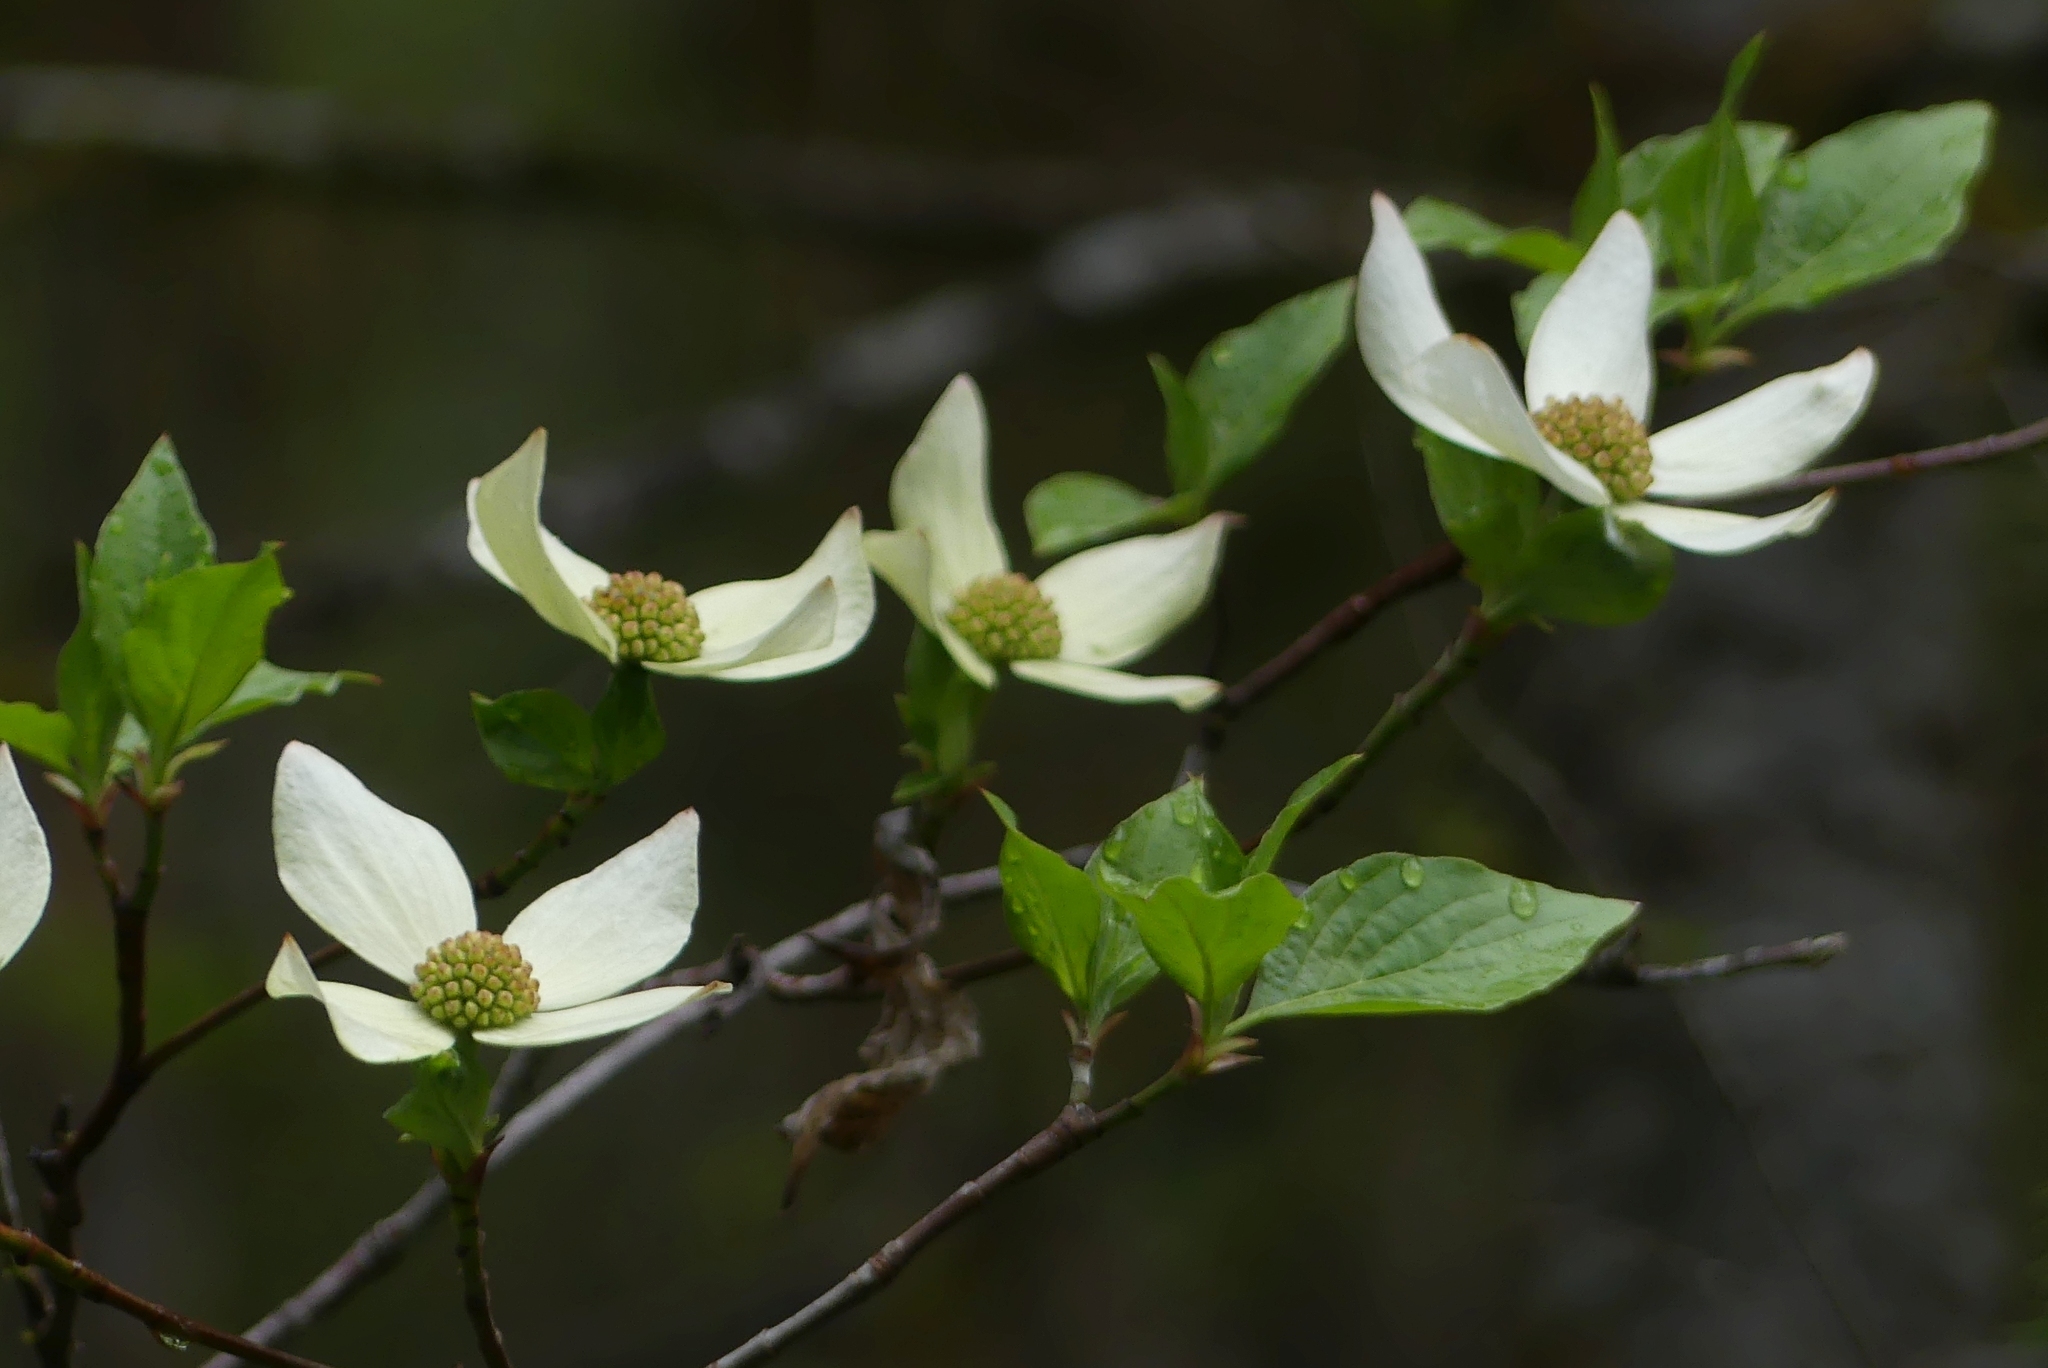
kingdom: Plantae
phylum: Tracheophyta
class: Magnoliopsida
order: Cornales
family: Cornaceae
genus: Cornus
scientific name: Cornus nuttallii
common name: Pacific dogwood
